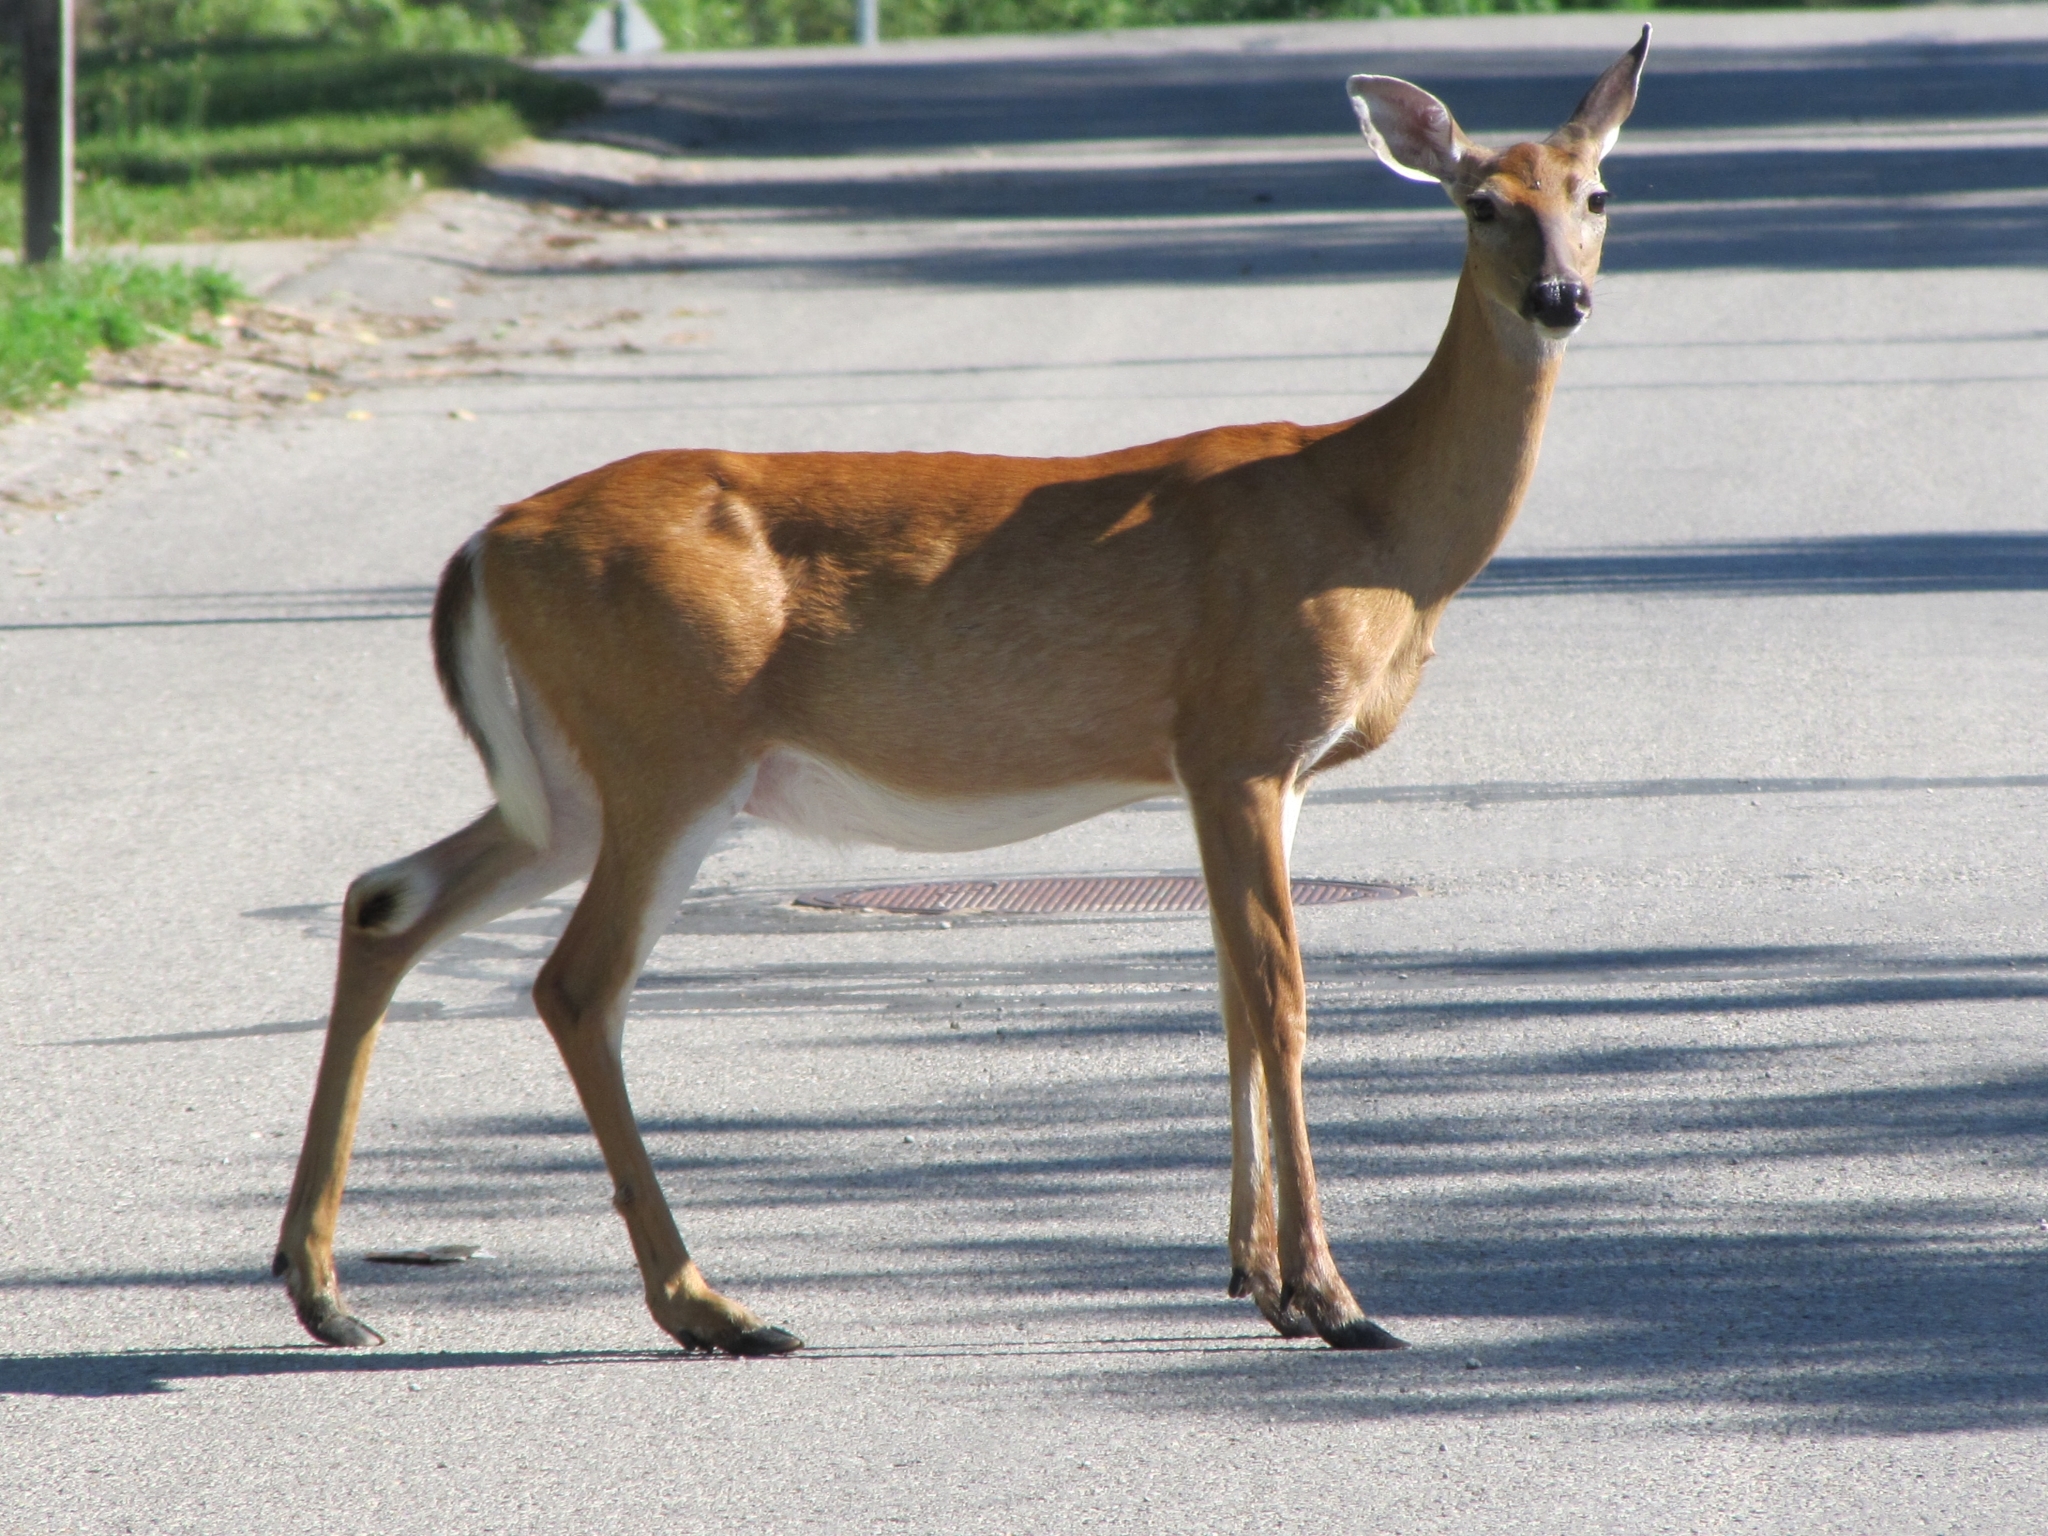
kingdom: Animalia
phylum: Chordata
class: Mammalia
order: Artiodactyla
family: Cervidae
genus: Odocoileus
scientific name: Odocoileus virginianus
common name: White-tailed deer
